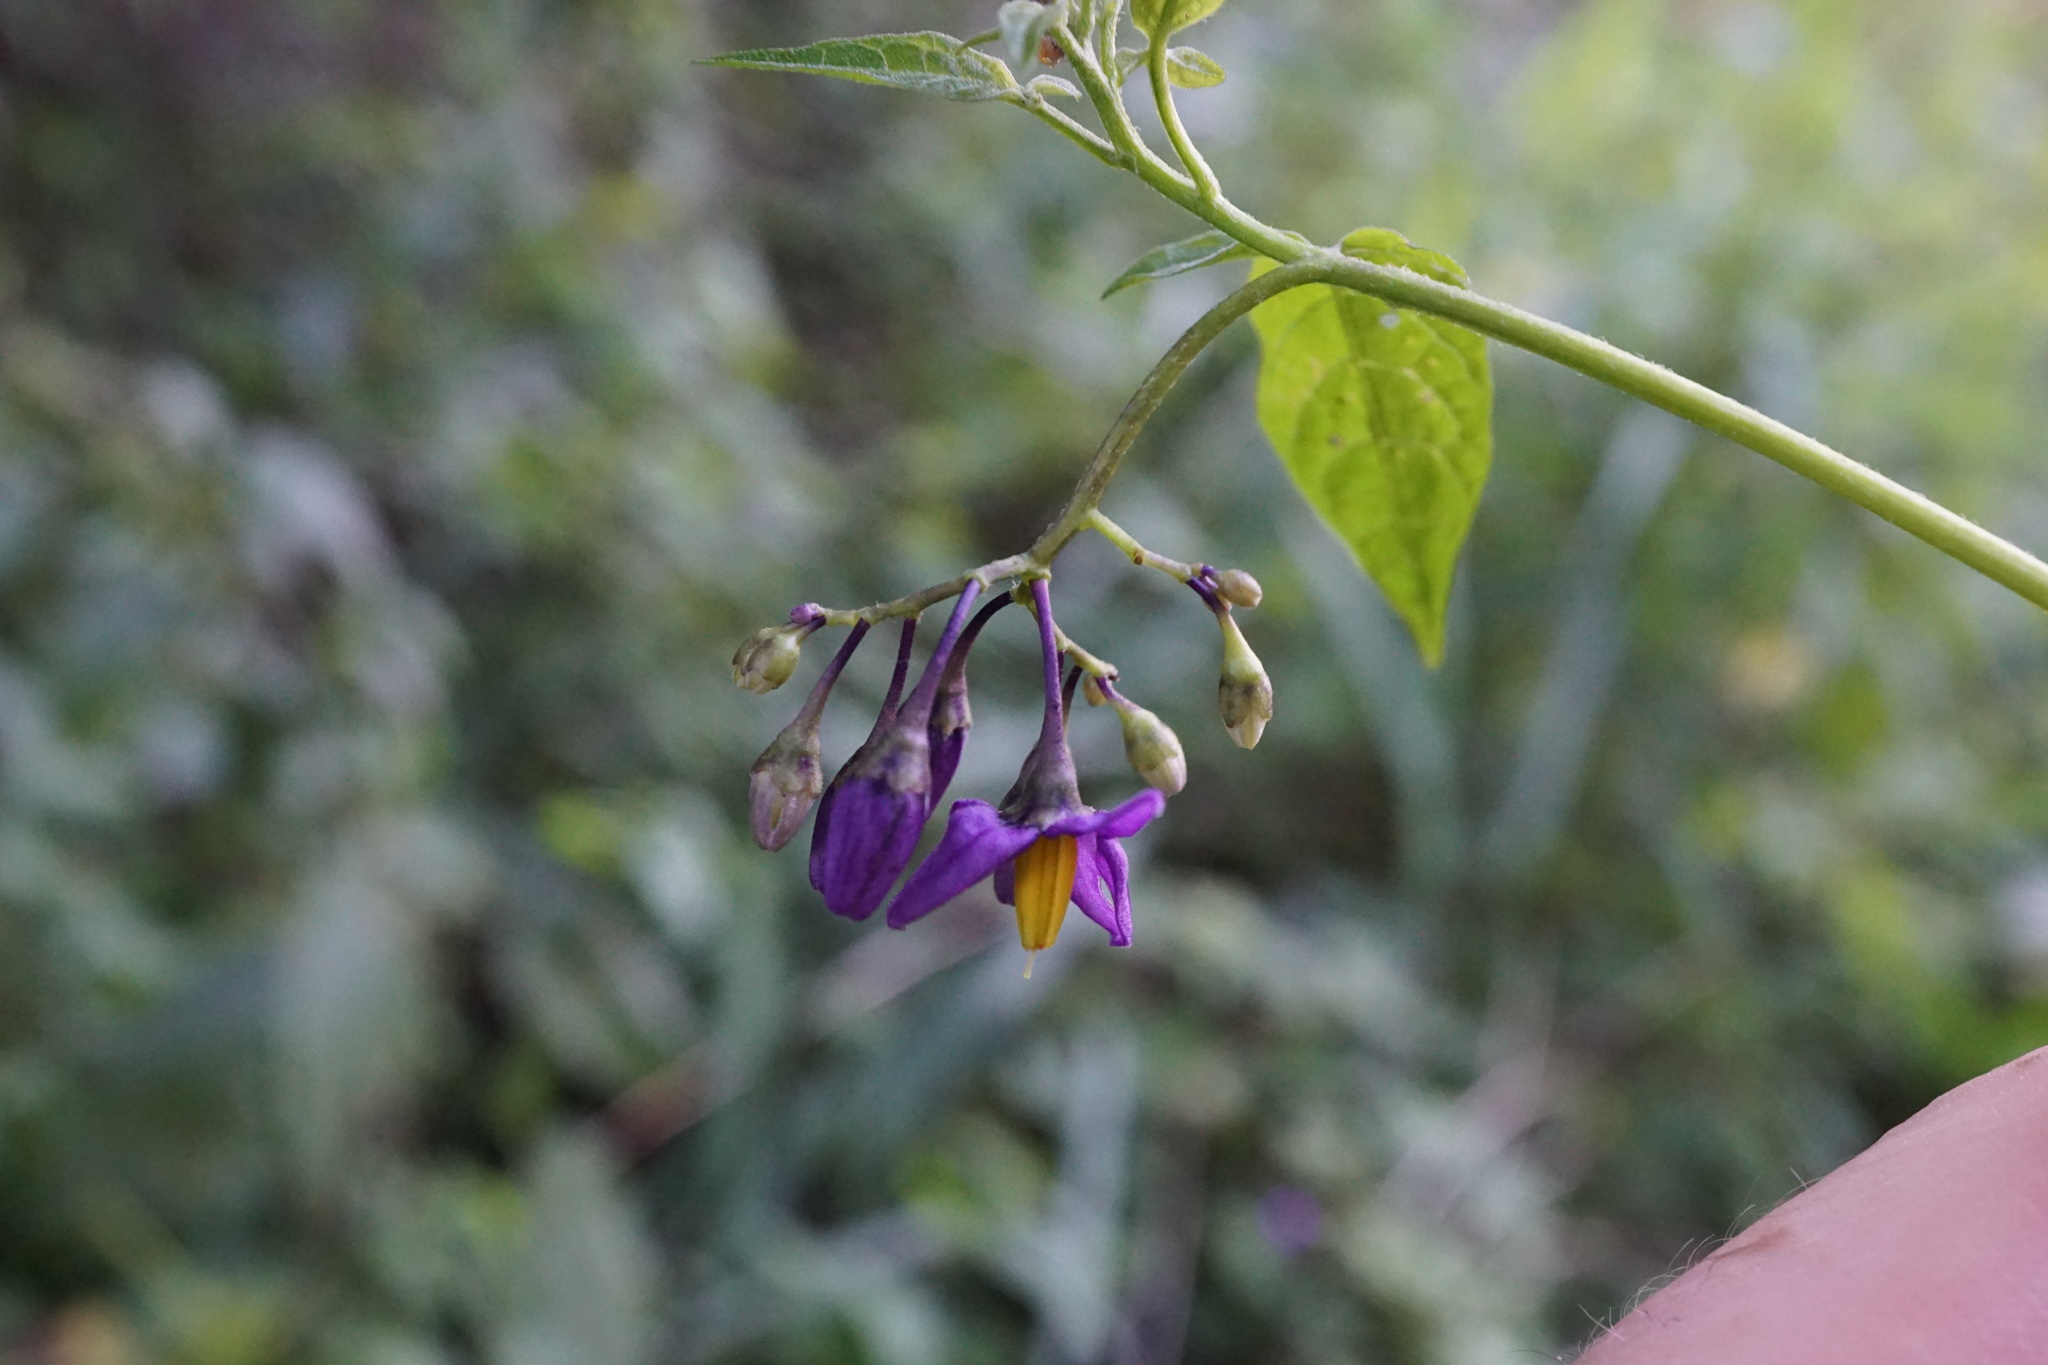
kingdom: Plantae
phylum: Tracheophyta
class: Magnoliopsida
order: Solanales
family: Solanaceae
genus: Solanum
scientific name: Solanum dulcamara
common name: Climbing nightshade
